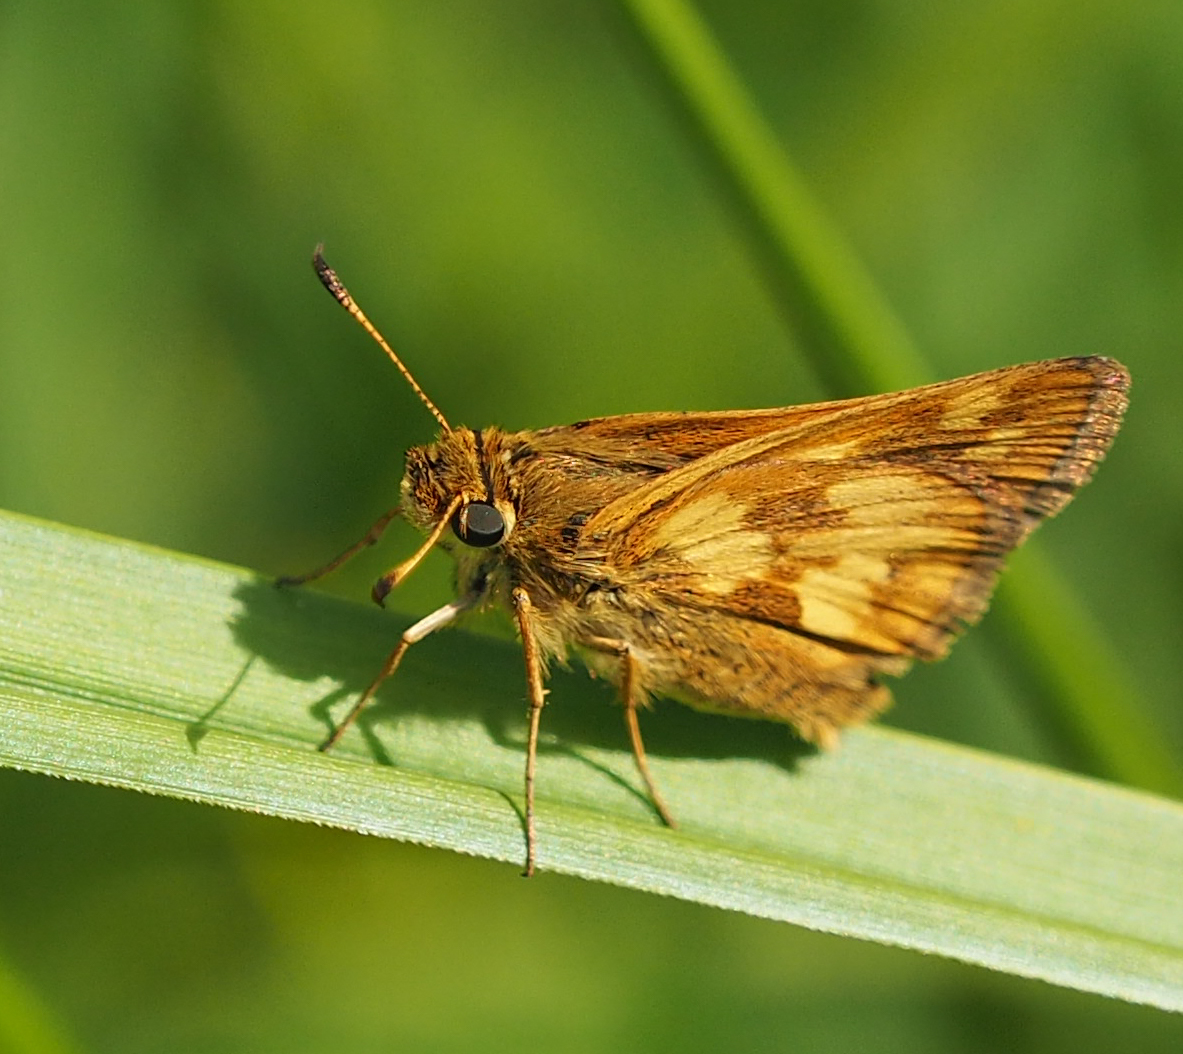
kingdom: Animalia
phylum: Arthropoda
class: Insecta
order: Lepidoptera
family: Hesperiidae
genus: Polites
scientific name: Polites coras
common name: Peck's skipper
